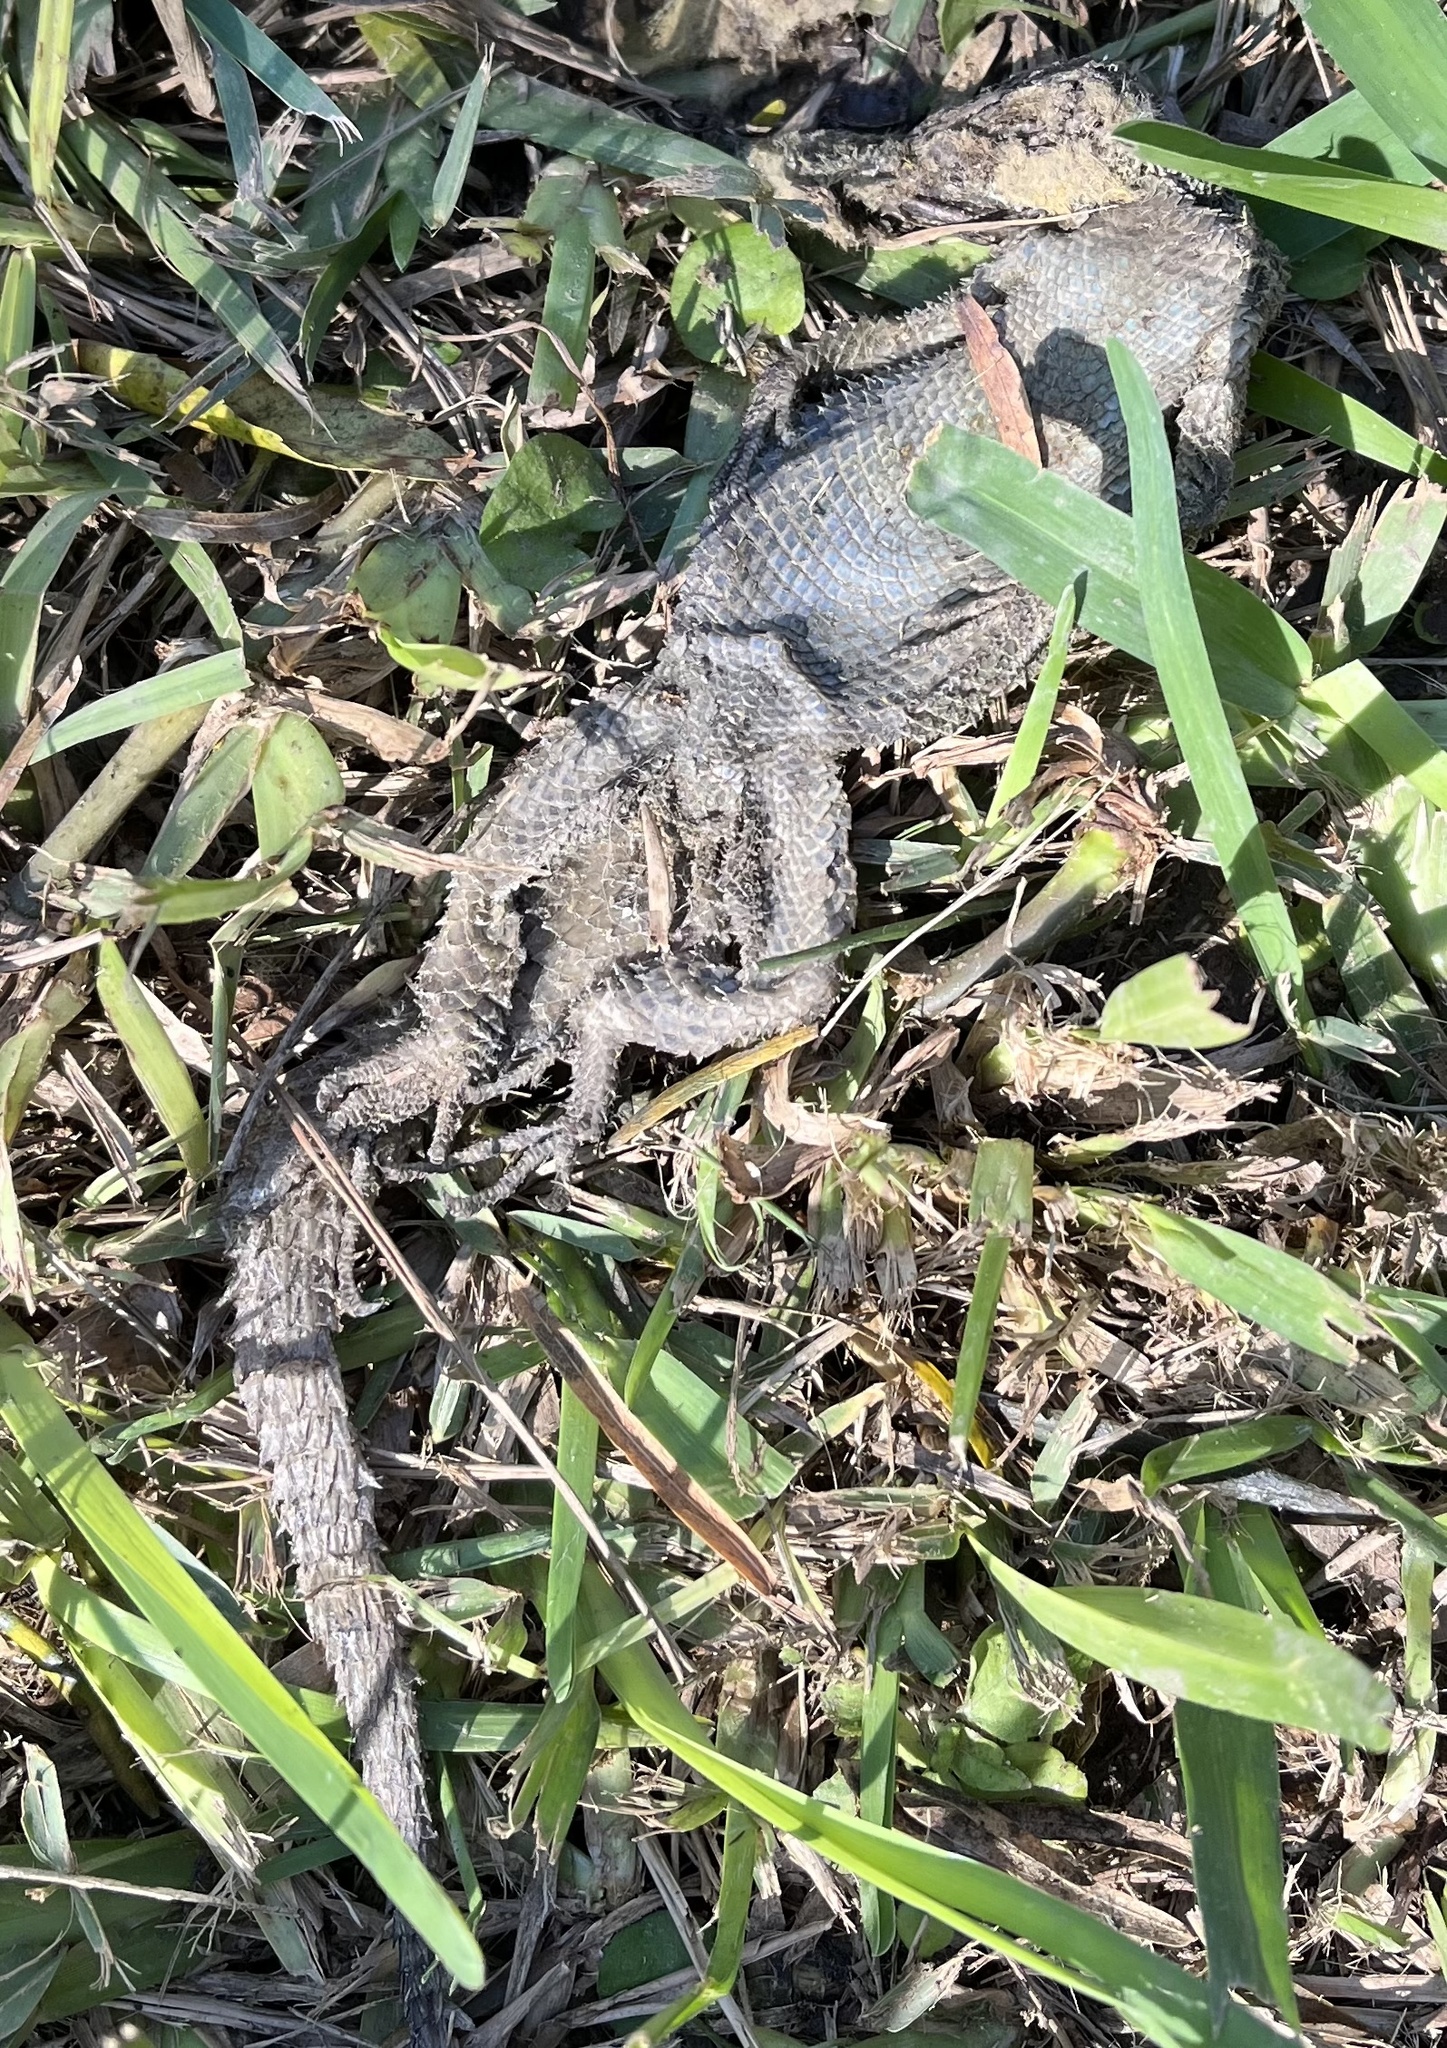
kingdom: Animalia
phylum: Chordata
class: Squamata
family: Phrynosomatidae
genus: Sceloporus
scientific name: Sceloporus cyanogenys
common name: Blue spiny lizard
